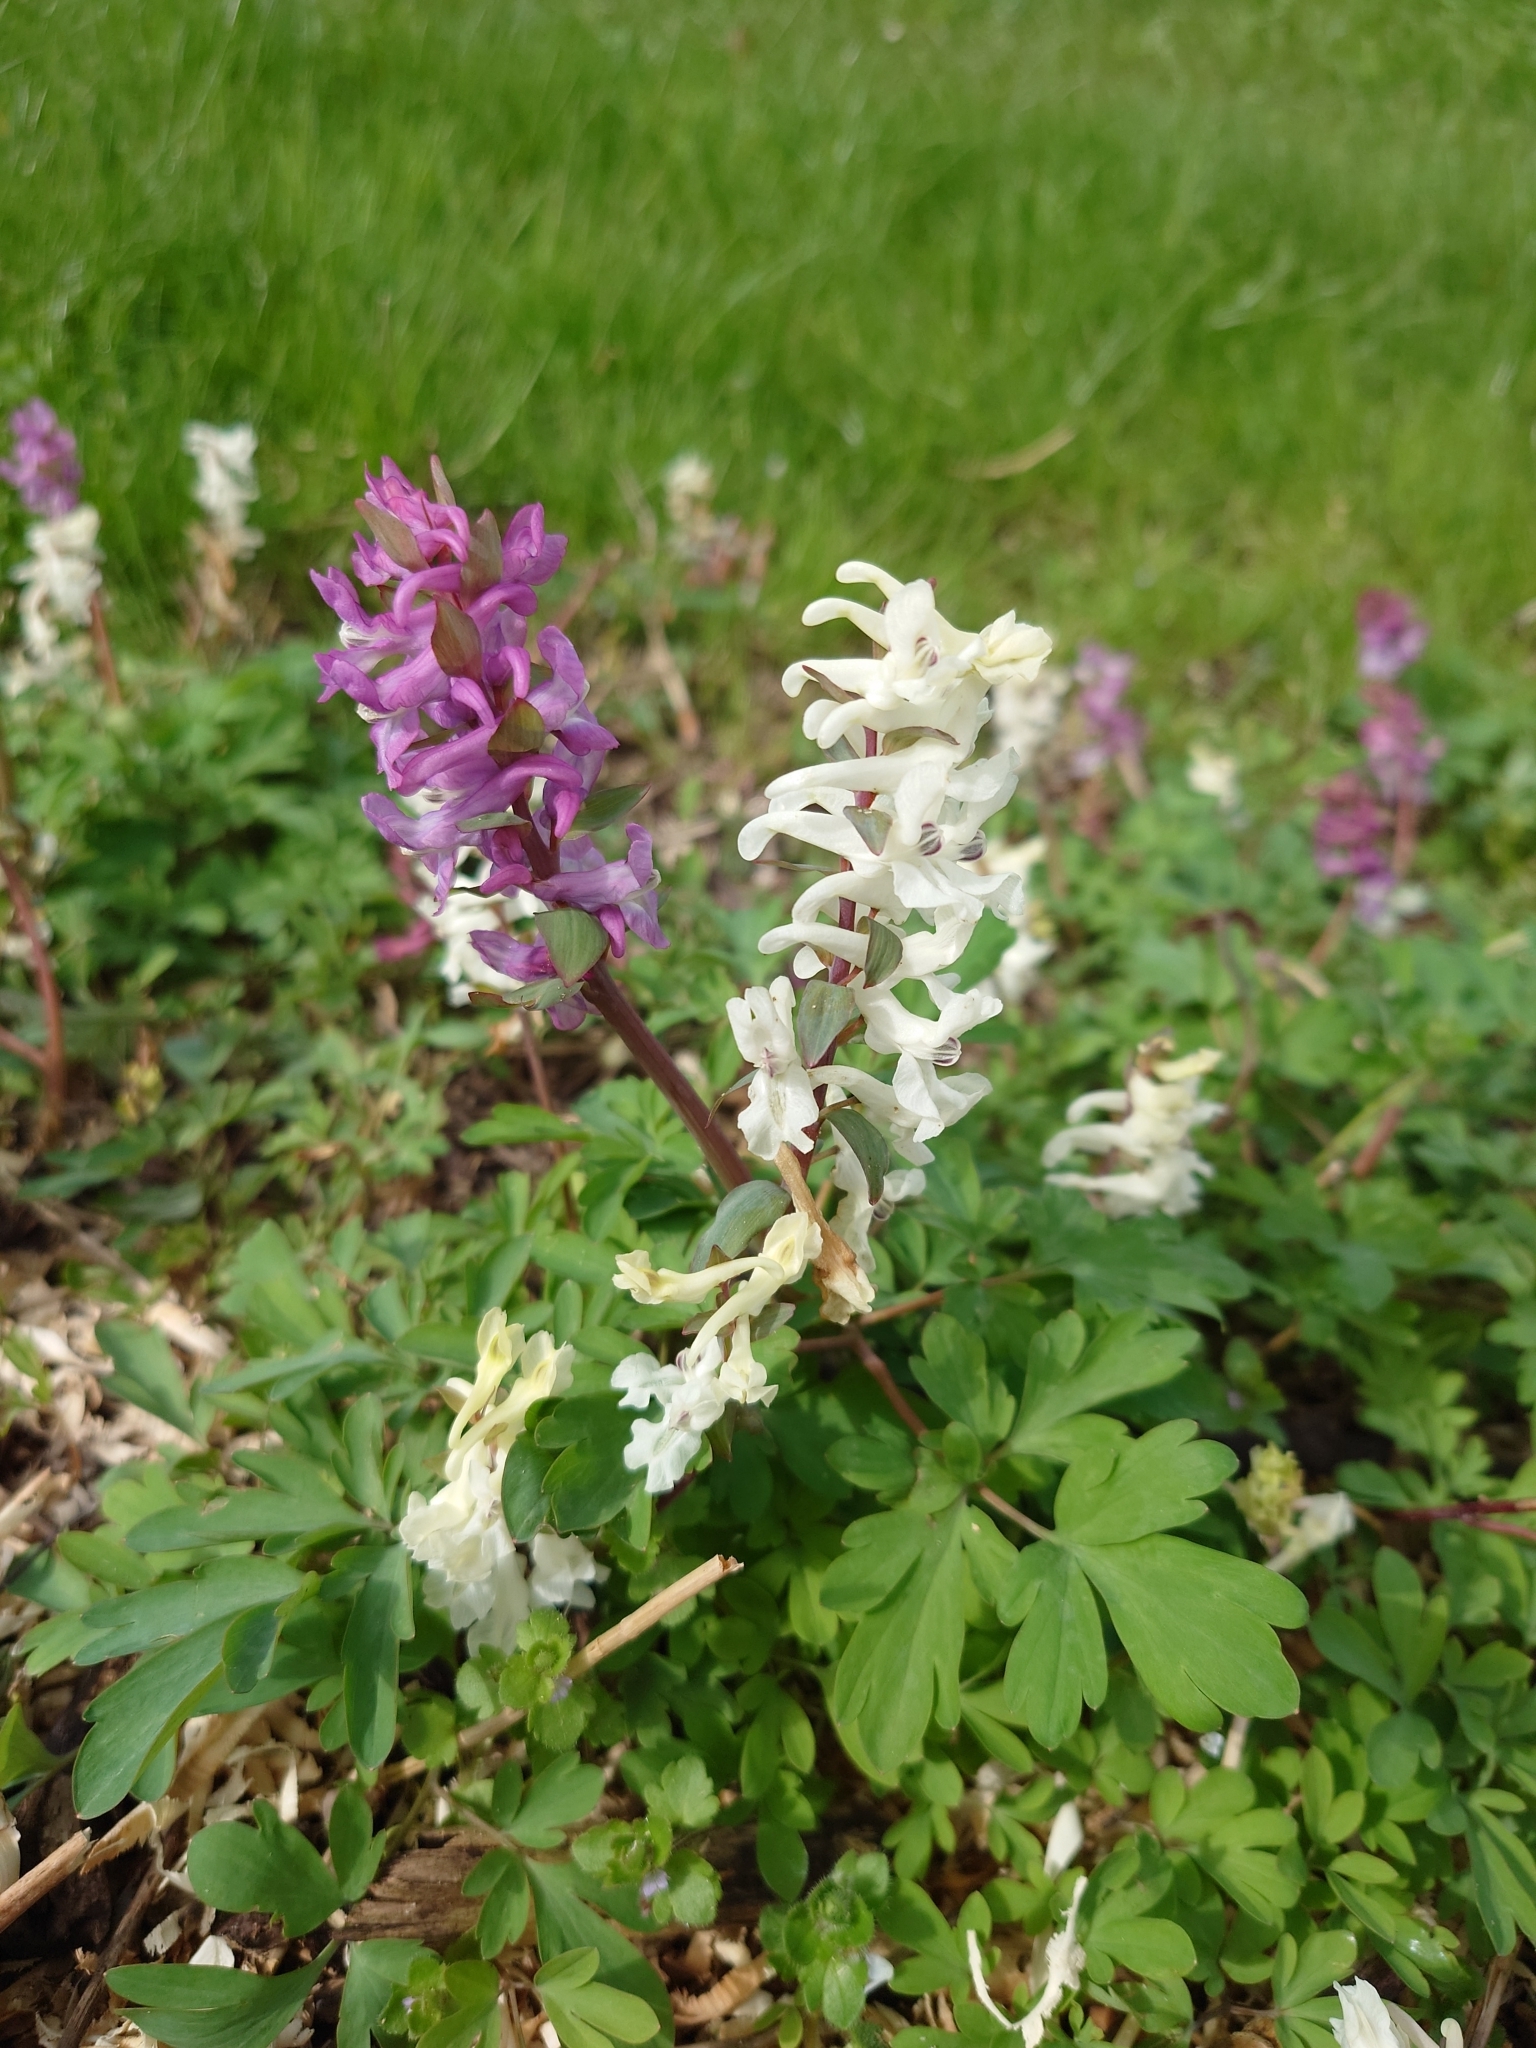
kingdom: Plantae
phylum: Tracheophyta
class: Magnoliopsida
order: Ranunculales
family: Papaveraceae
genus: Corydalis
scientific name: Corydalis cava
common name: Hollowroot
